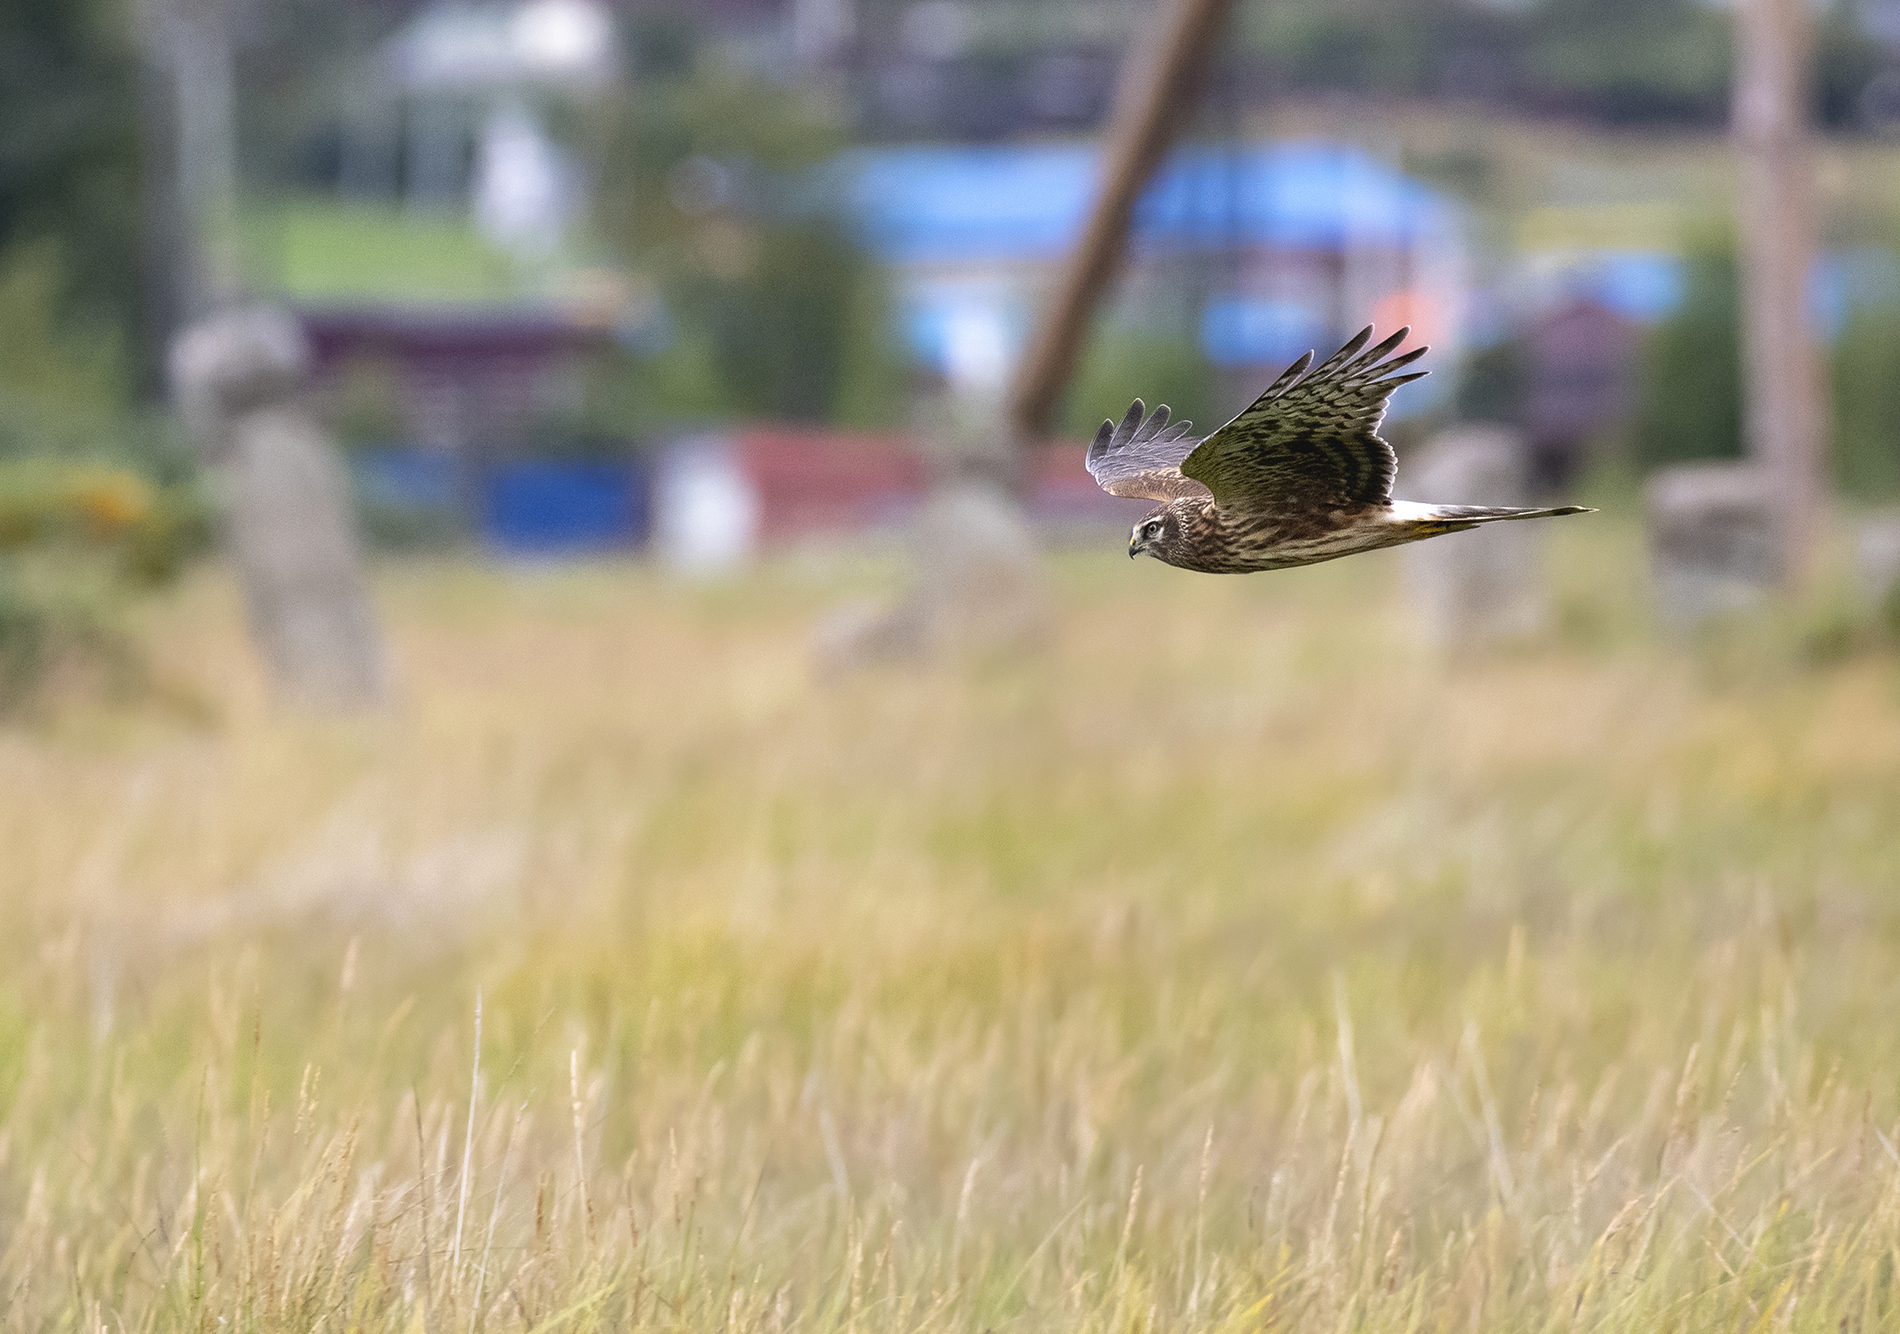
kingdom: Animalia
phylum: Chordata
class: Aves
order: Accipitriformes
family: Accipitridae
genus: Circus
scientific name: Circus cyaneus
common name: Hen harrier
